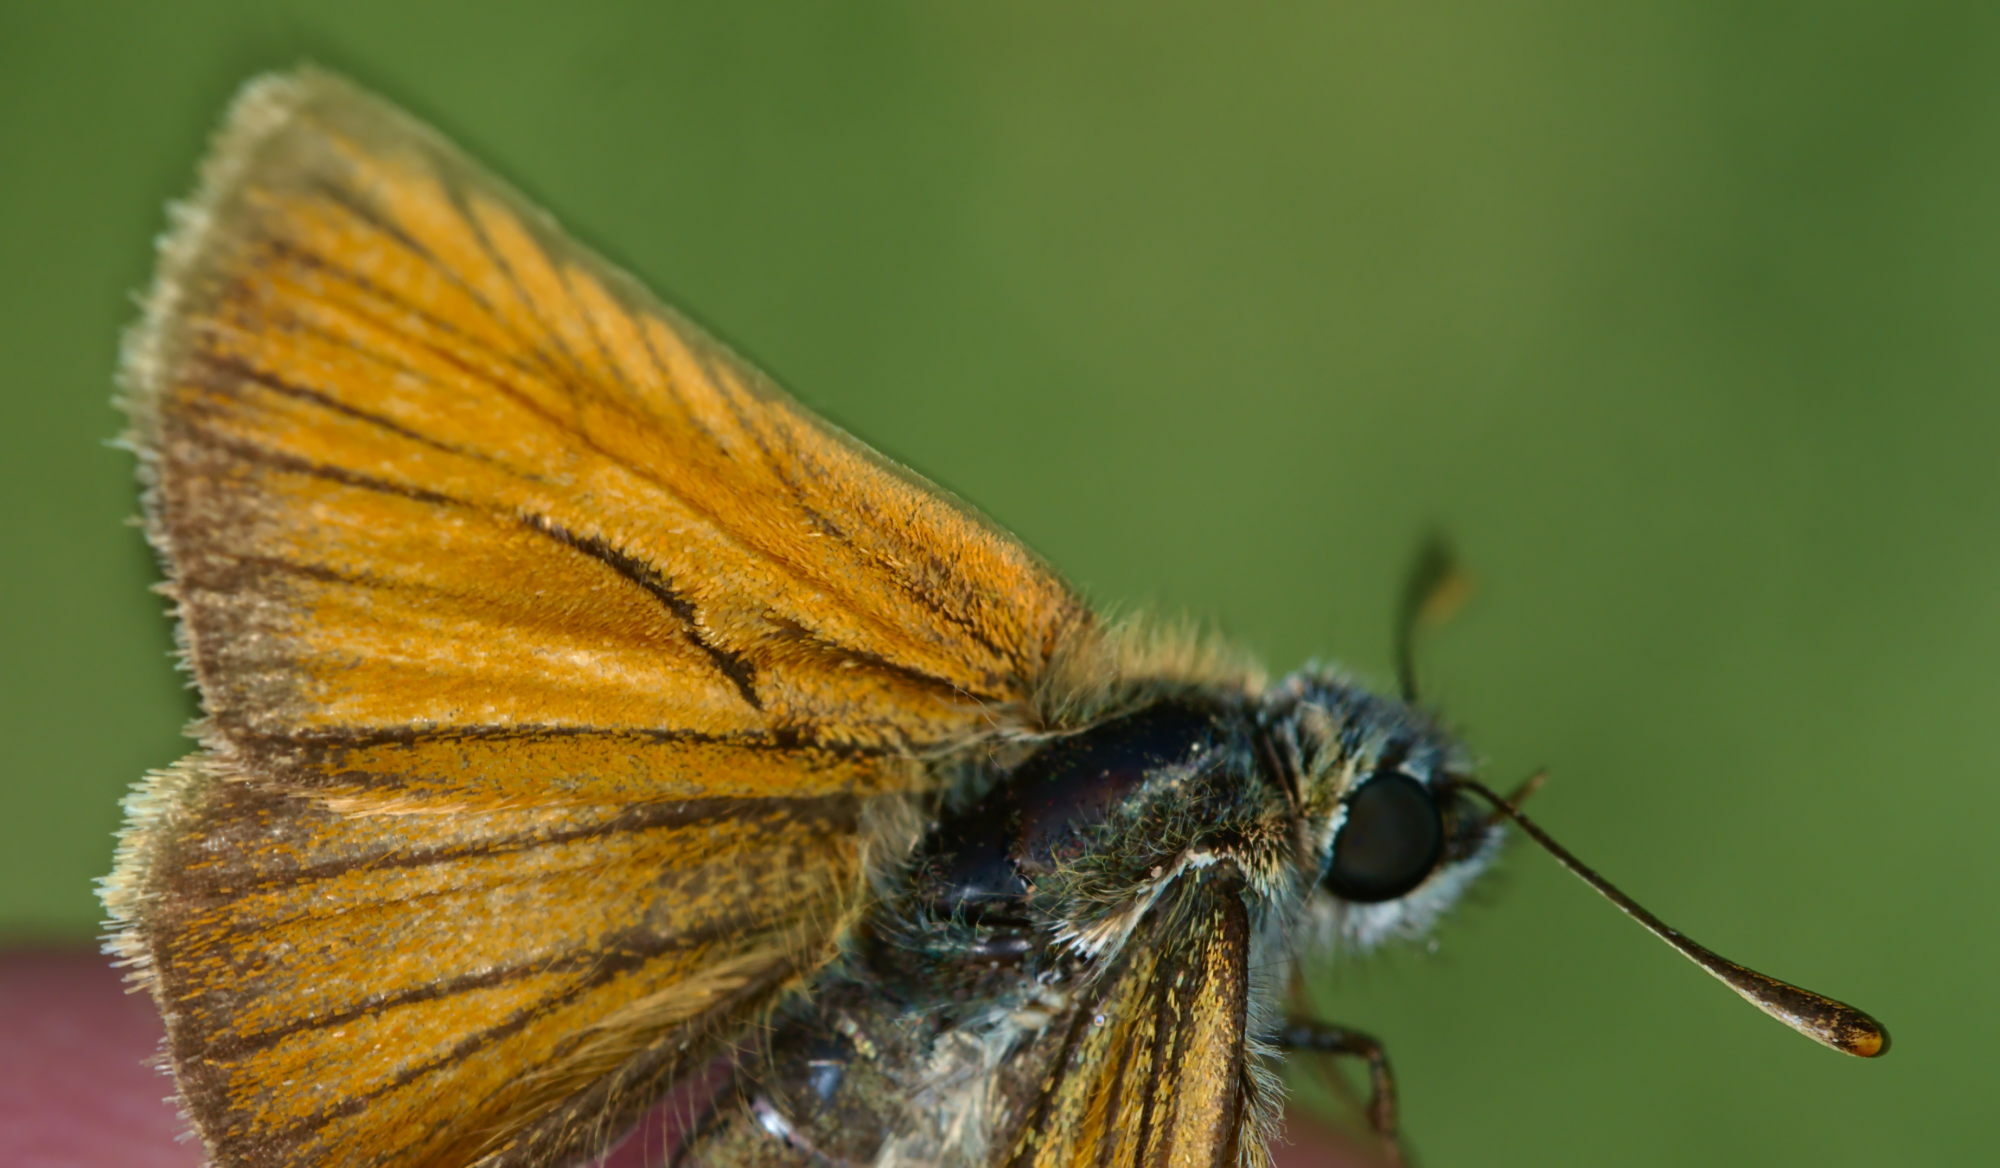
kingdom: Animalia
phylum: Arthropoda
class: Insecta
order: Lepidoptera
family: Hesperiidae
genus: Thymelicus
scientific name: Thymelicus sylvestris
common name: Small skipper
